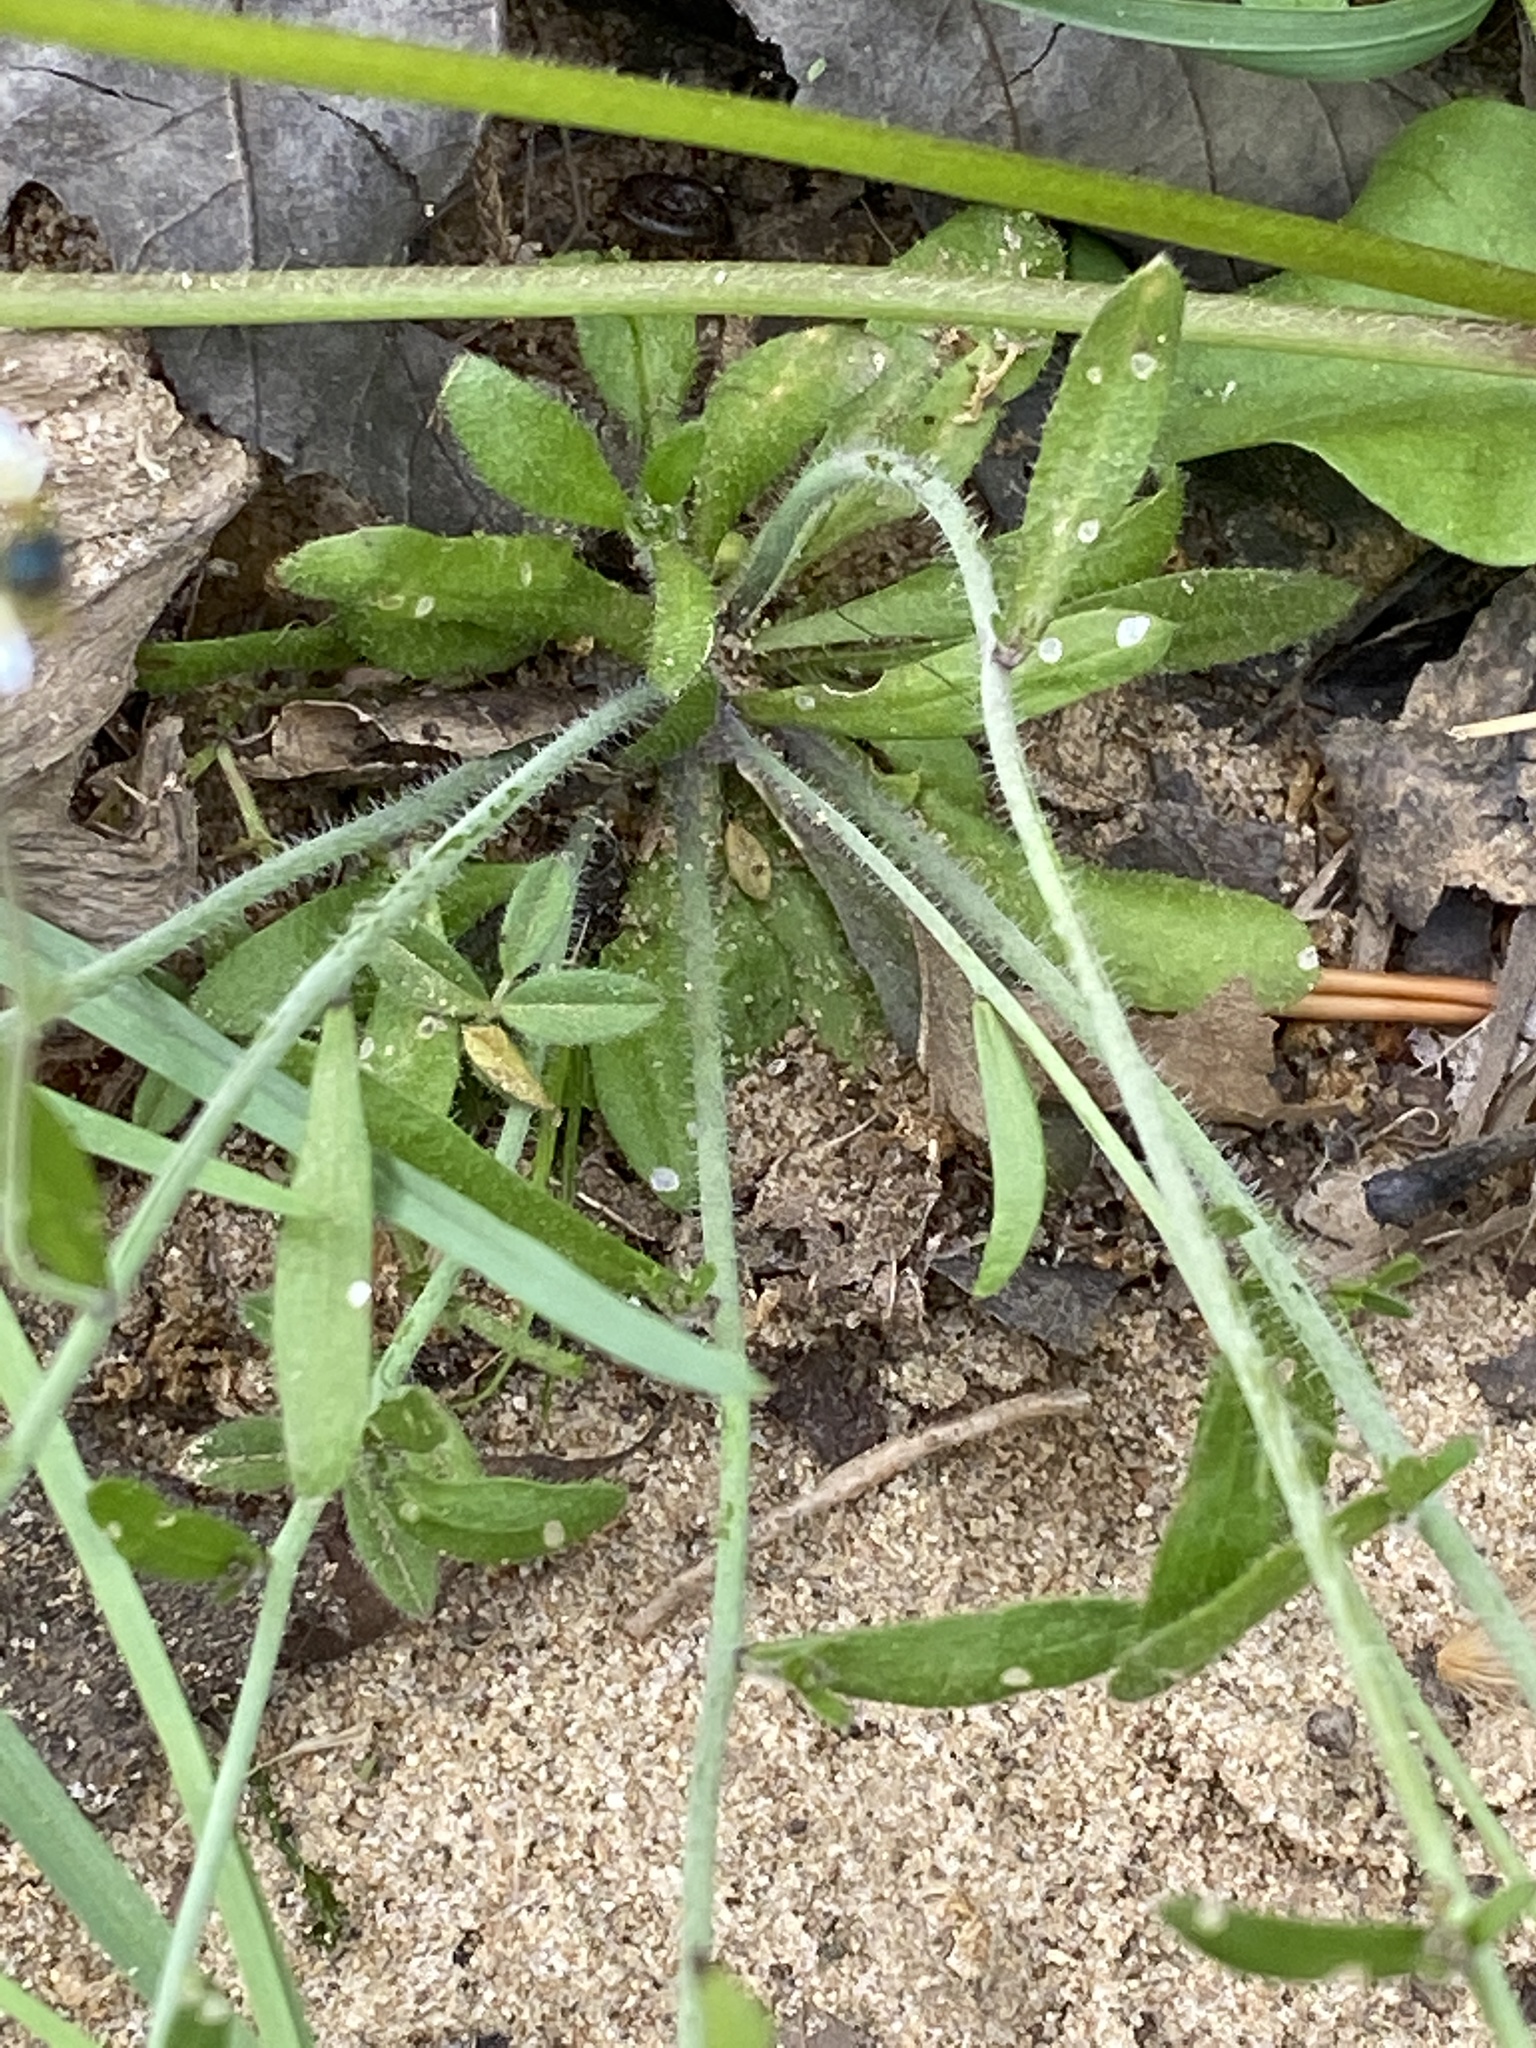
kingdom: Plantae
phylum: Tracheophyta
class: Magnoliopsida
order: Brassicales
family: Brassicaceae
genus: Arabidopsis
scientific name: Arabidopsis thaliana
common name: Thale cress
